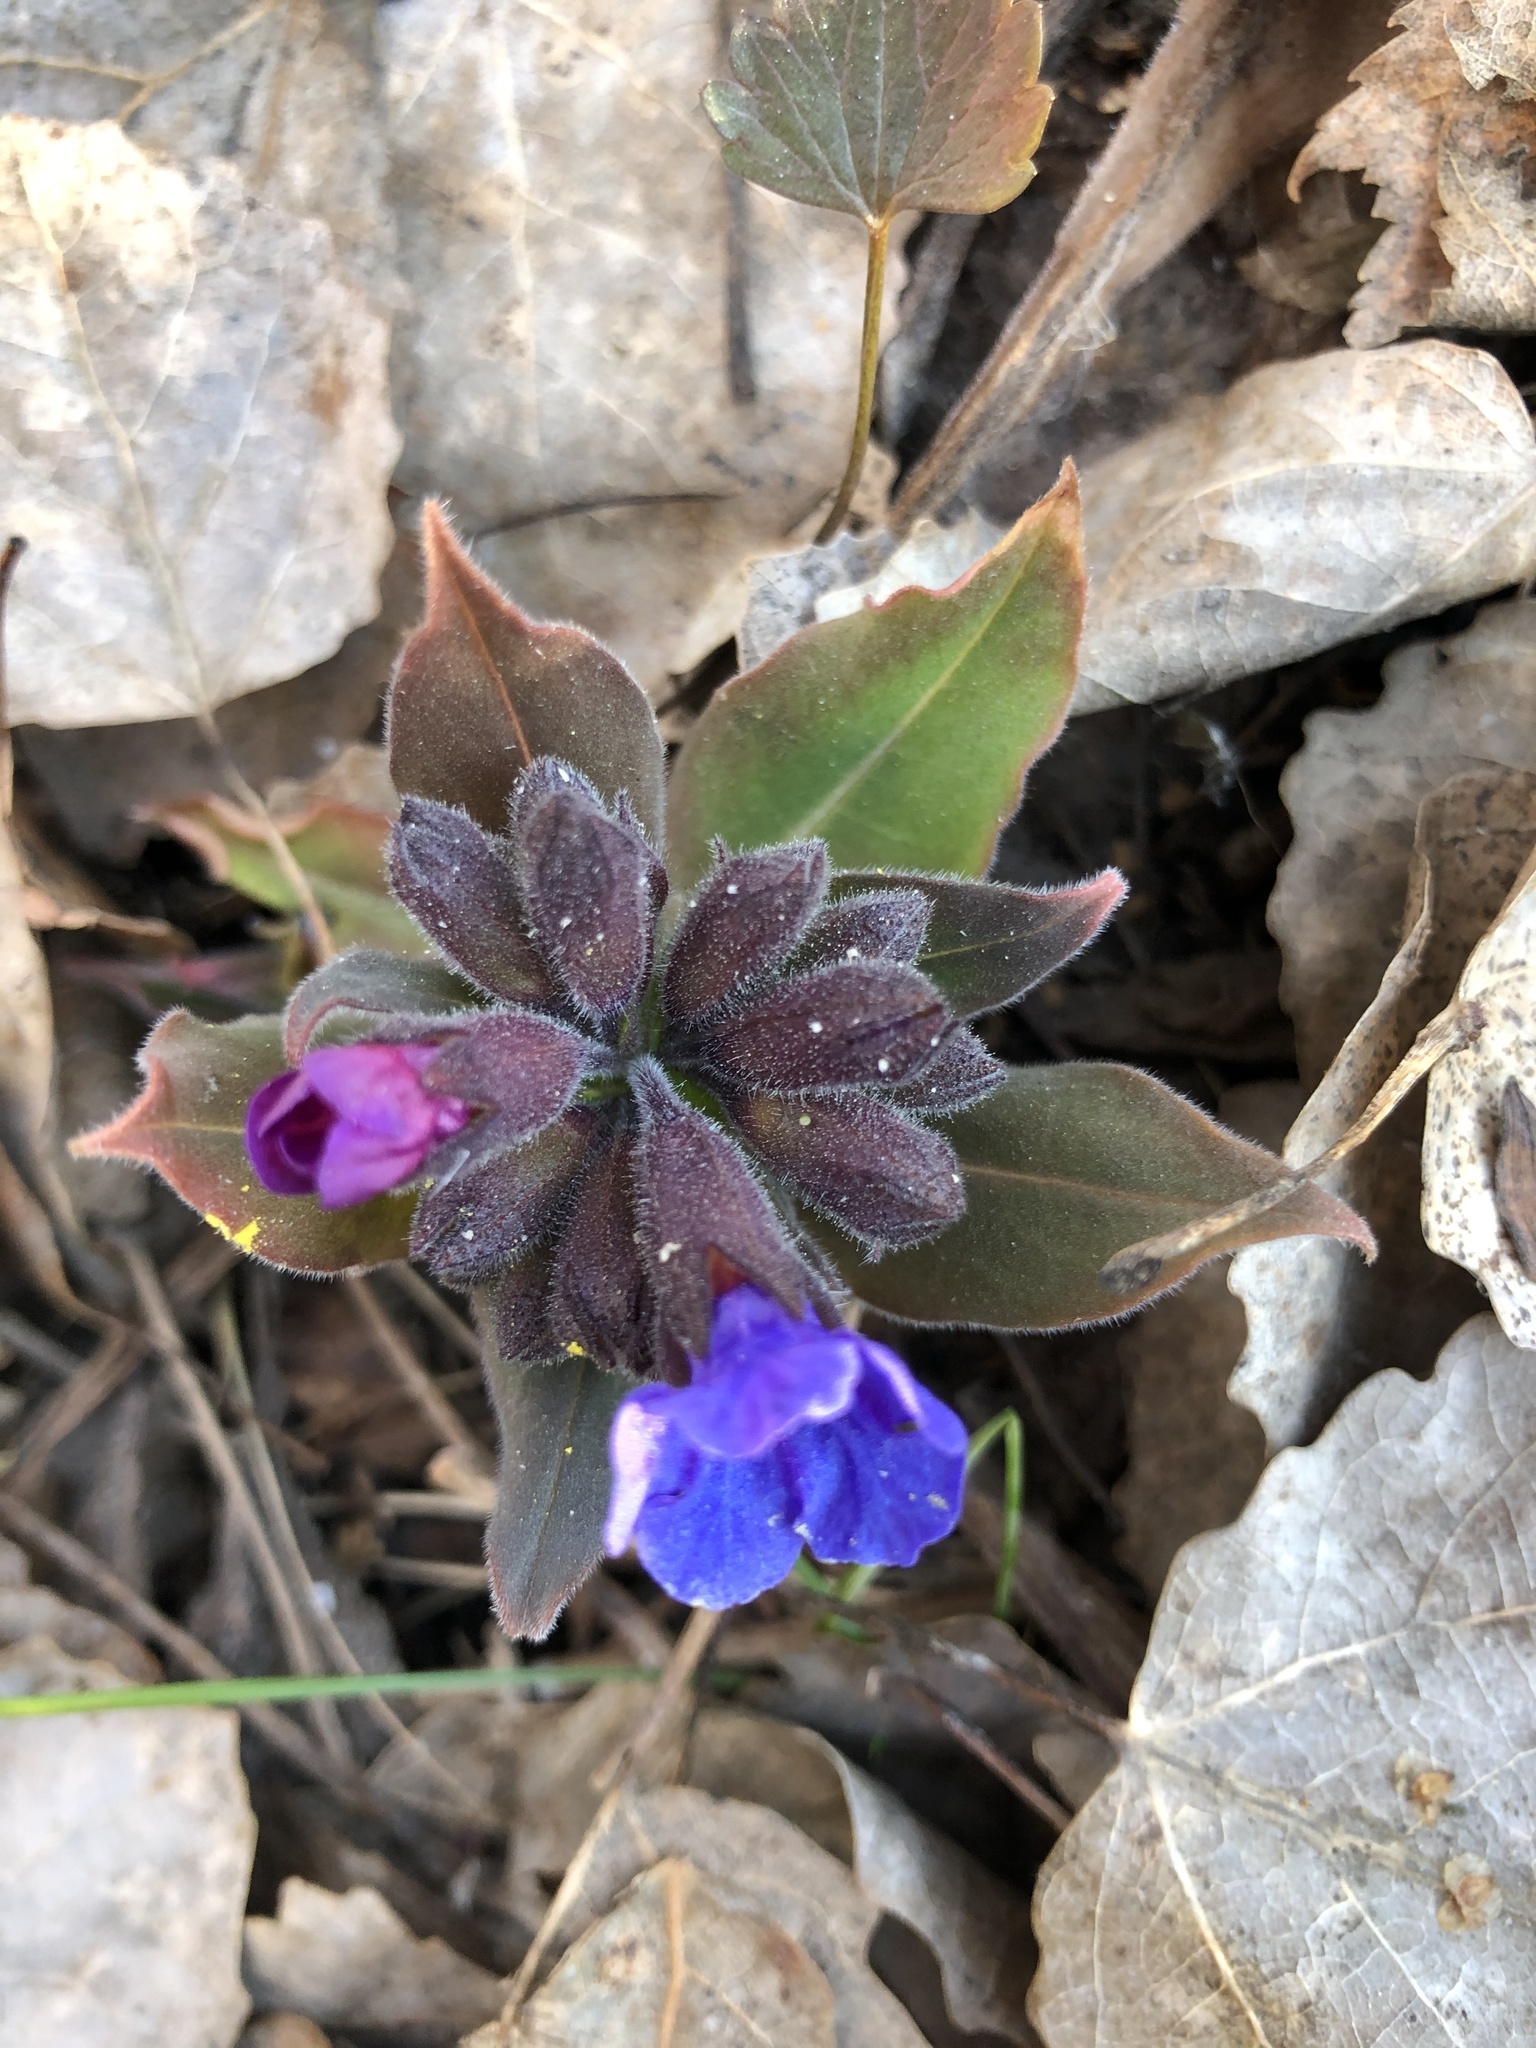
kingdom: Plantae
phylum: Tracheophyta
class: Magnoliopsida
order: Boraginales
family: Boraginaceae
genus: Pulmonaria
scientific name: Pulmonaria mollis
